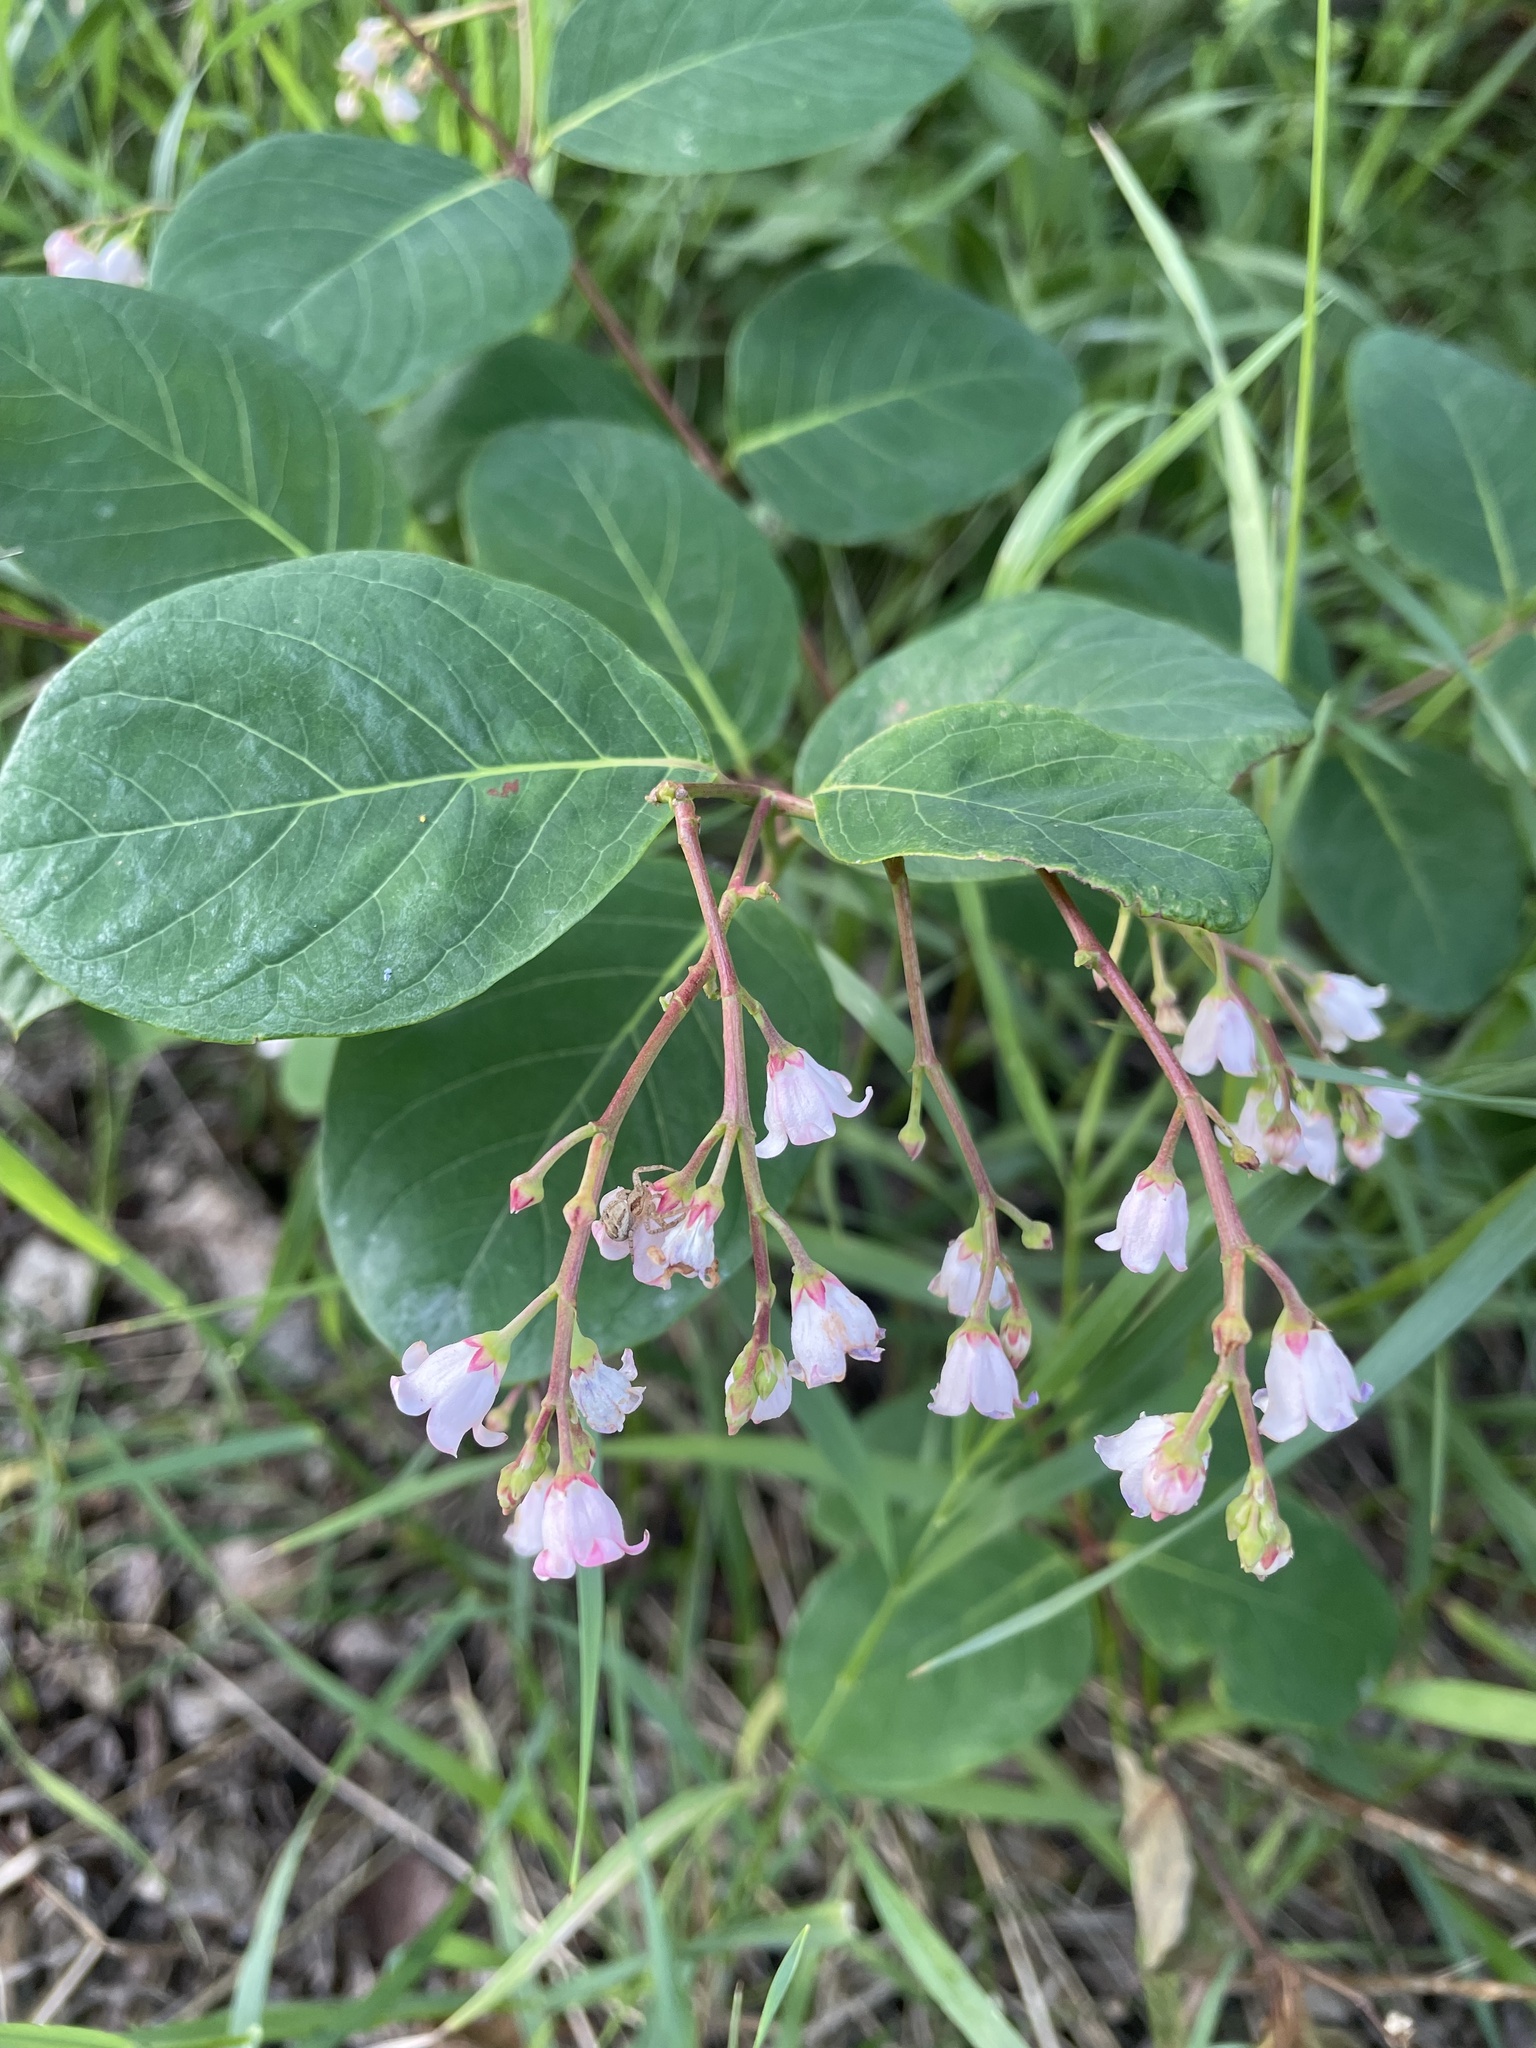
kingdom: Plantae
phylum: Tracheophyta
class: Magnoliopsida
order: Gentianales
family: Apocynaceae
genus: Apocynum
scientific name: Apocynum androsaemifolium
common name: Spreading dogbane
